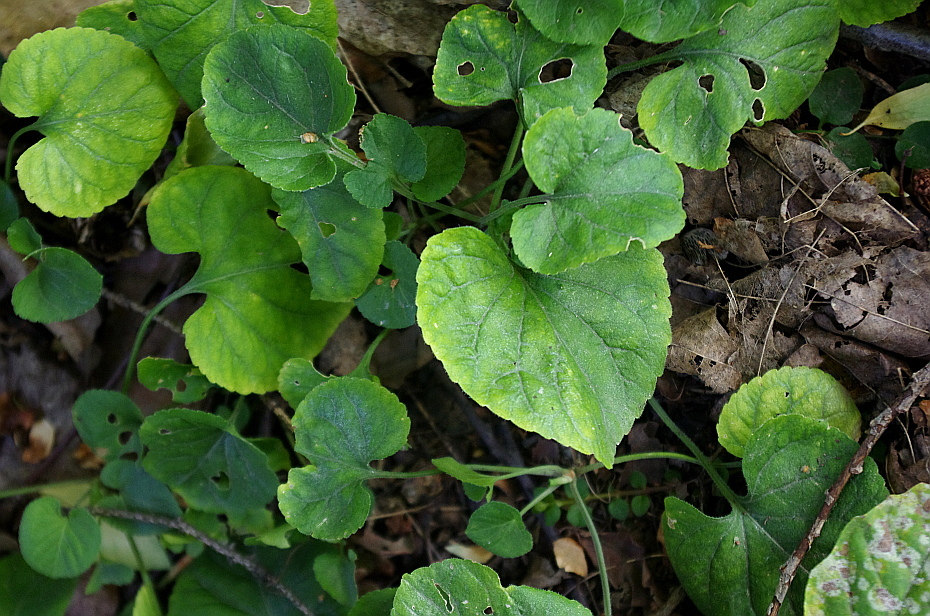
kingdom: Plantae
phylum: Tracheophyta
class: Magnoliopsida
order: Malpighiales
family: Violaceae
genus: Viola
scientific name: Viola odorata
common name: Sweet violet
